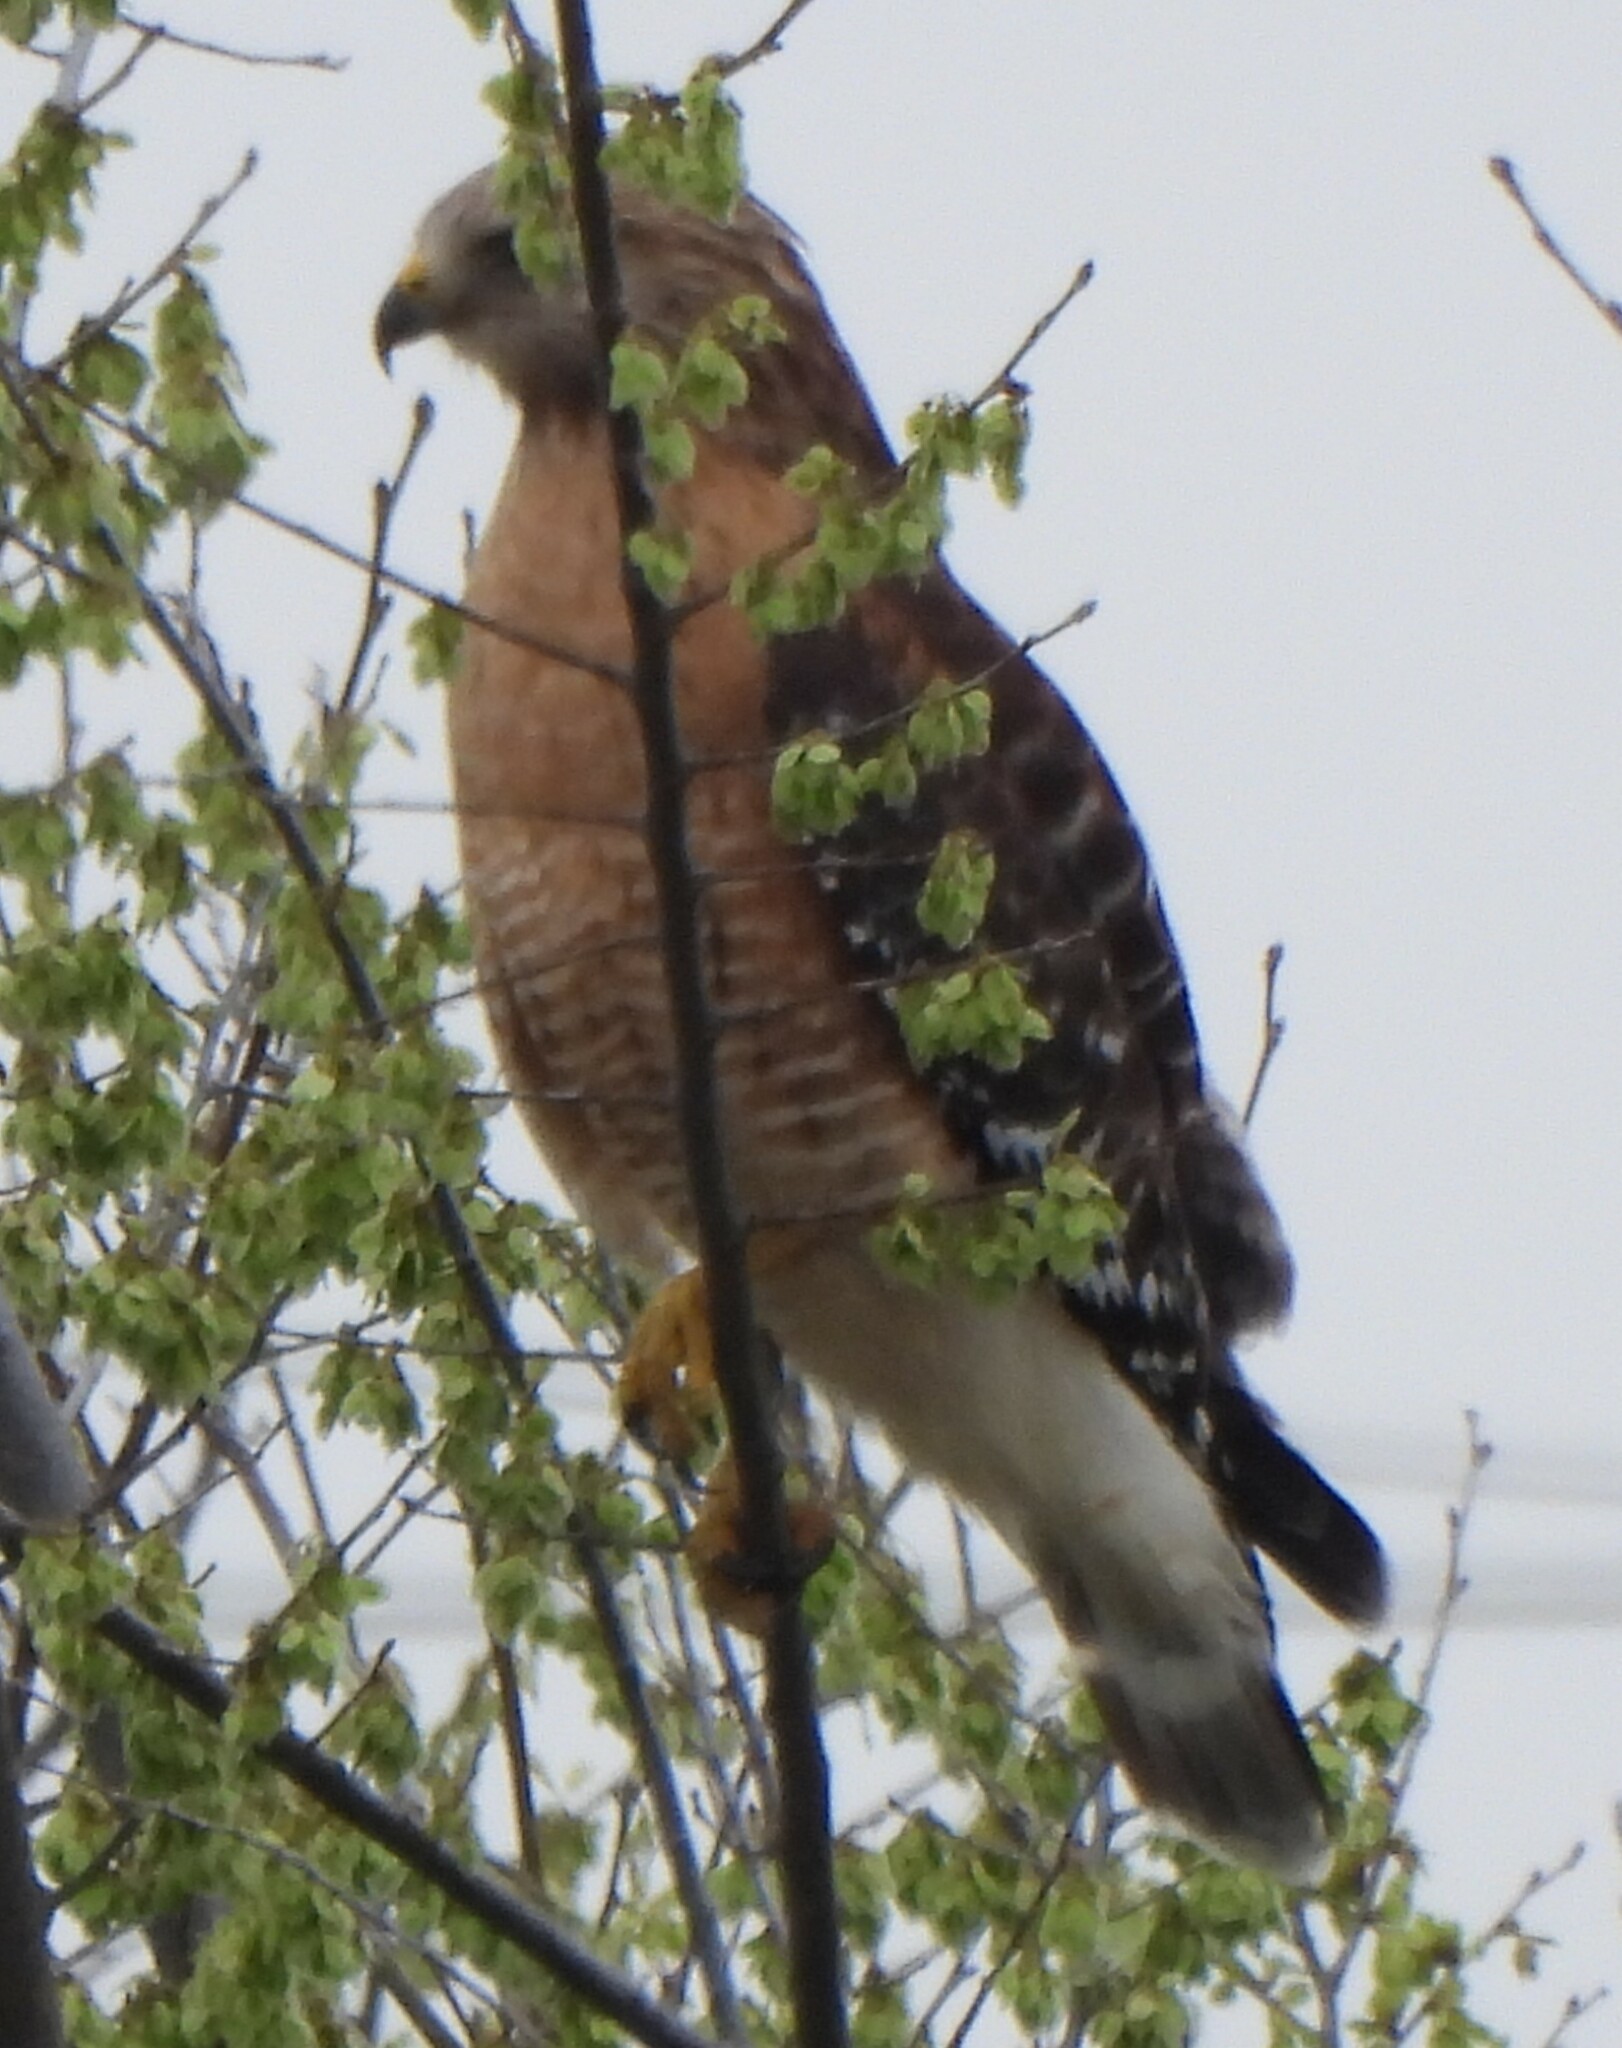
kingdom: Animalia
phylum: Chordata
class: Aves
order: Accipitriformes
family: Accipitridae
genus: Buteo
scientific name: Buteo lineatus
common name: Red-shouldered hawk
